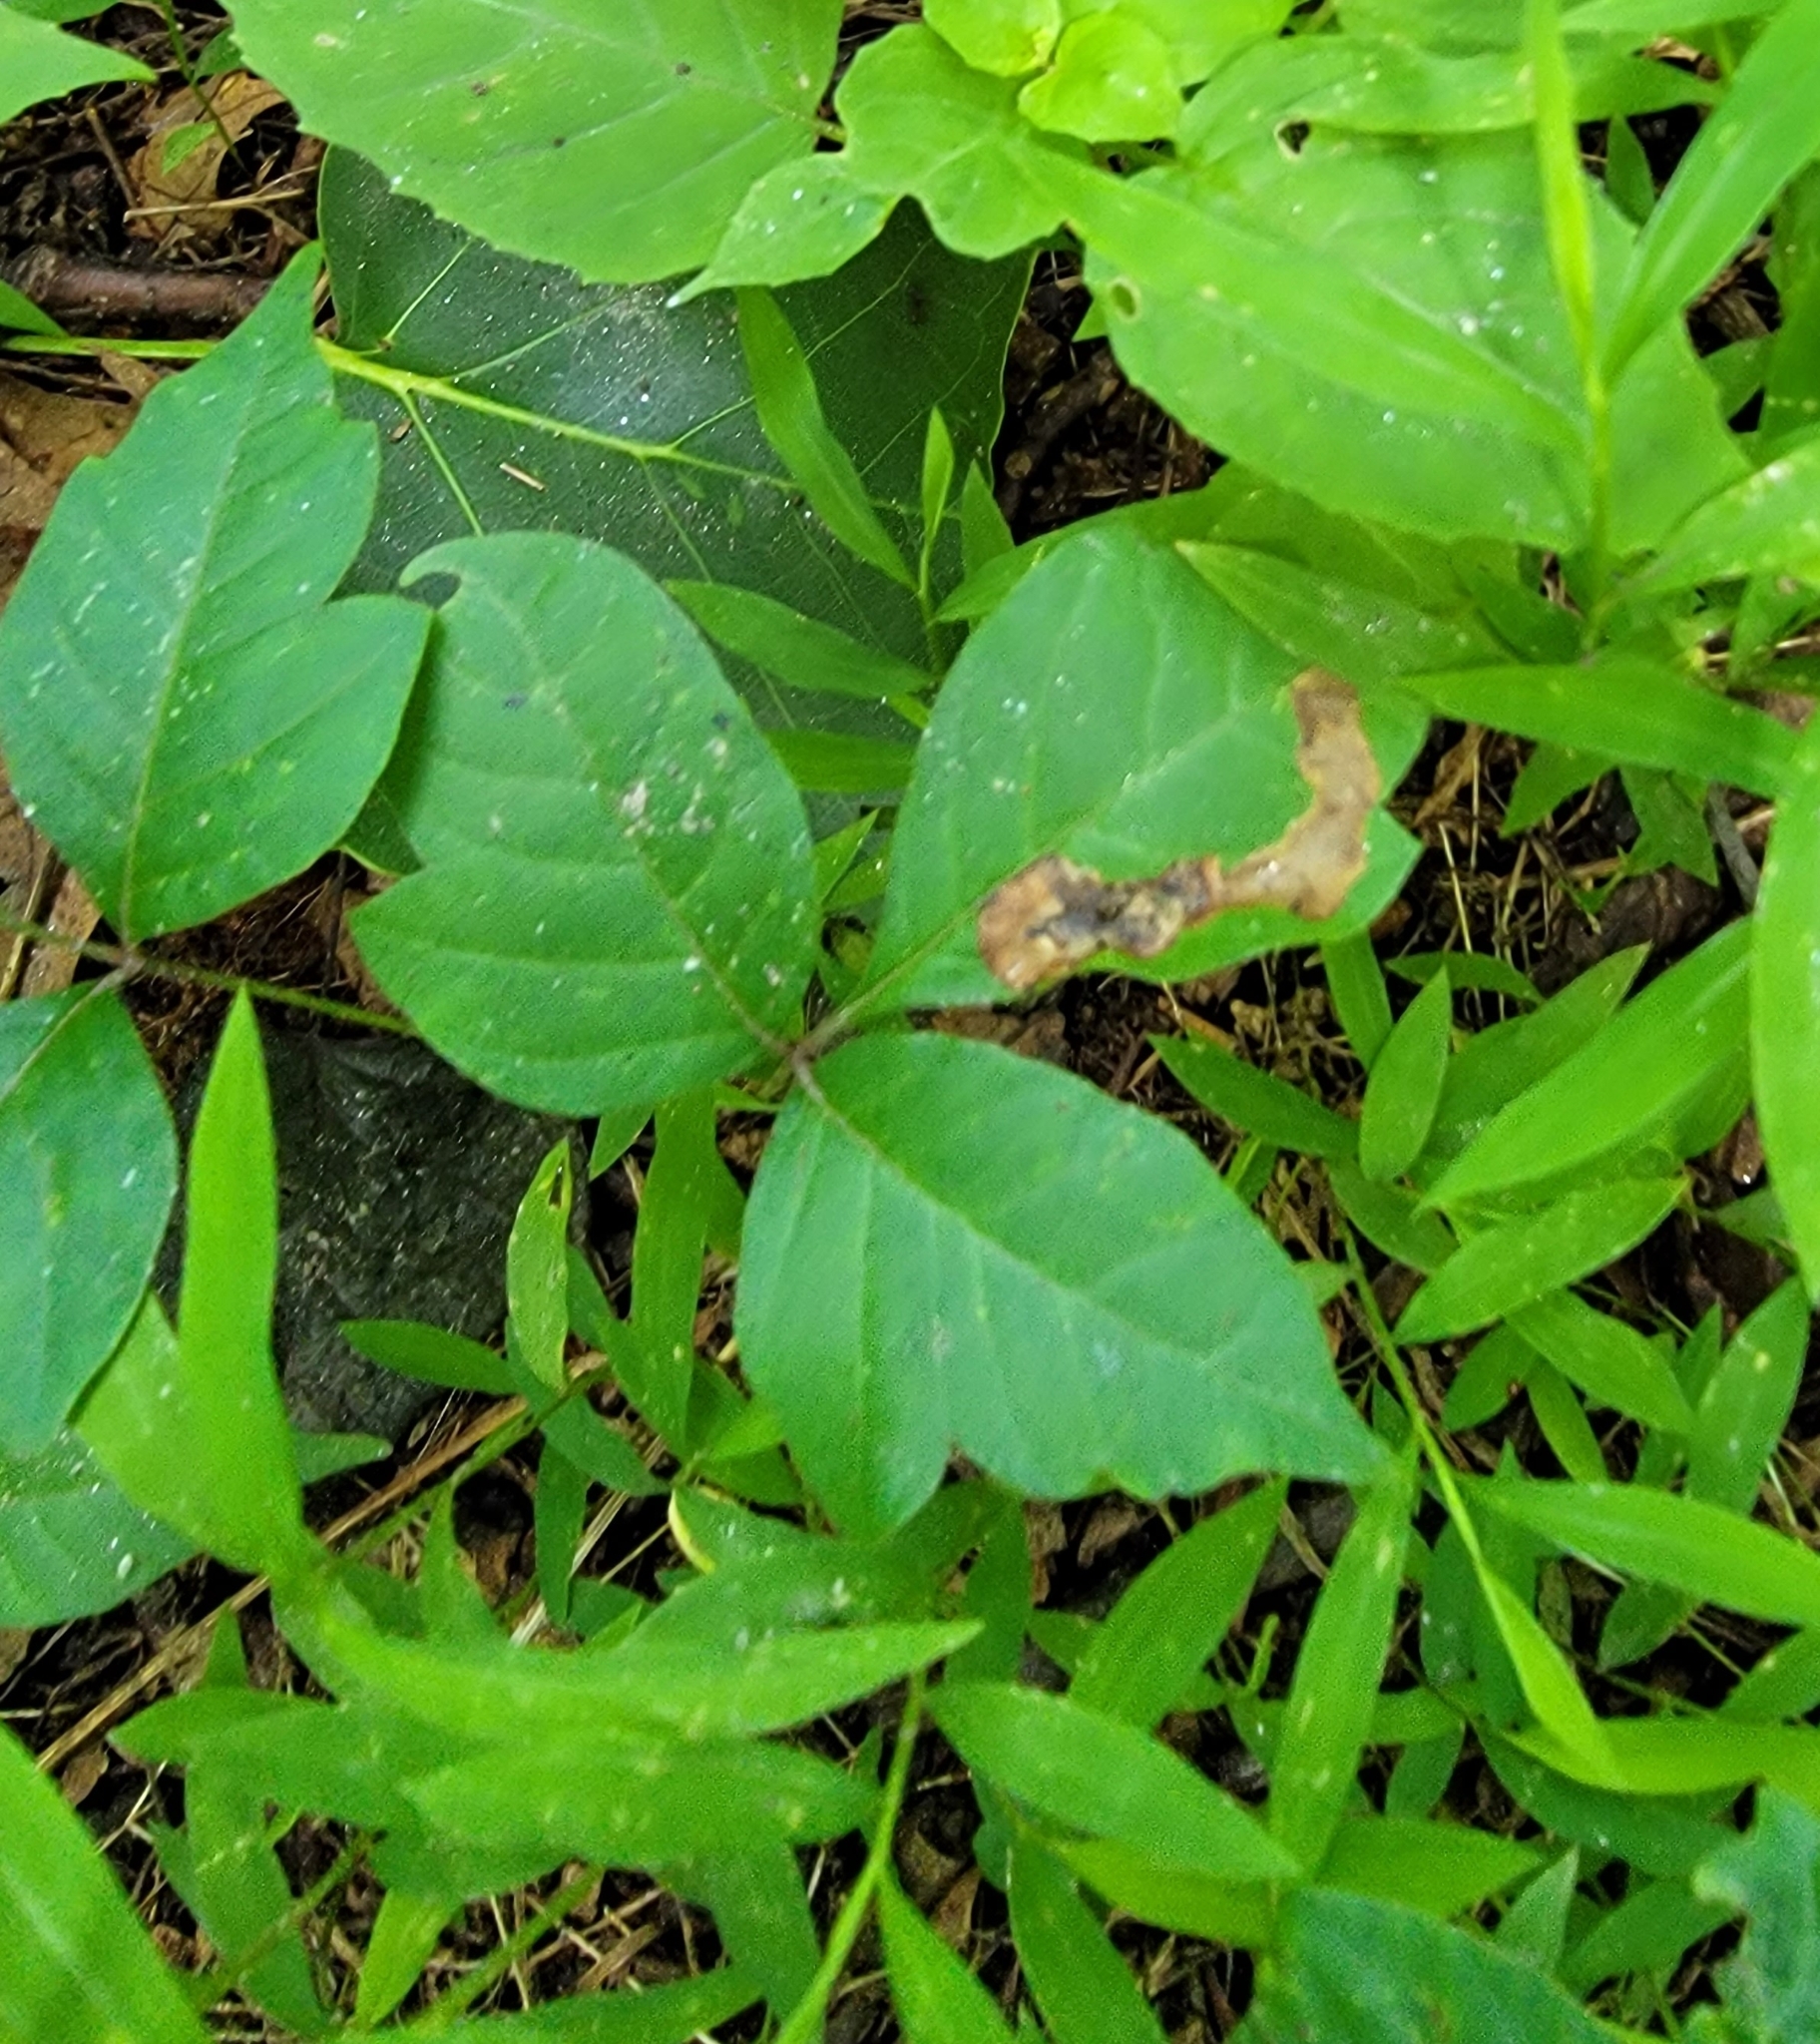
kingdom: Animalia
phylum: Arthropoda
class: Insecta
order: Lepidoptera
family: Gracillariidae
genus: Cameraria
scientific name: Cameraria guttifinitella
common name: Poison ivy leaf-miner moth
